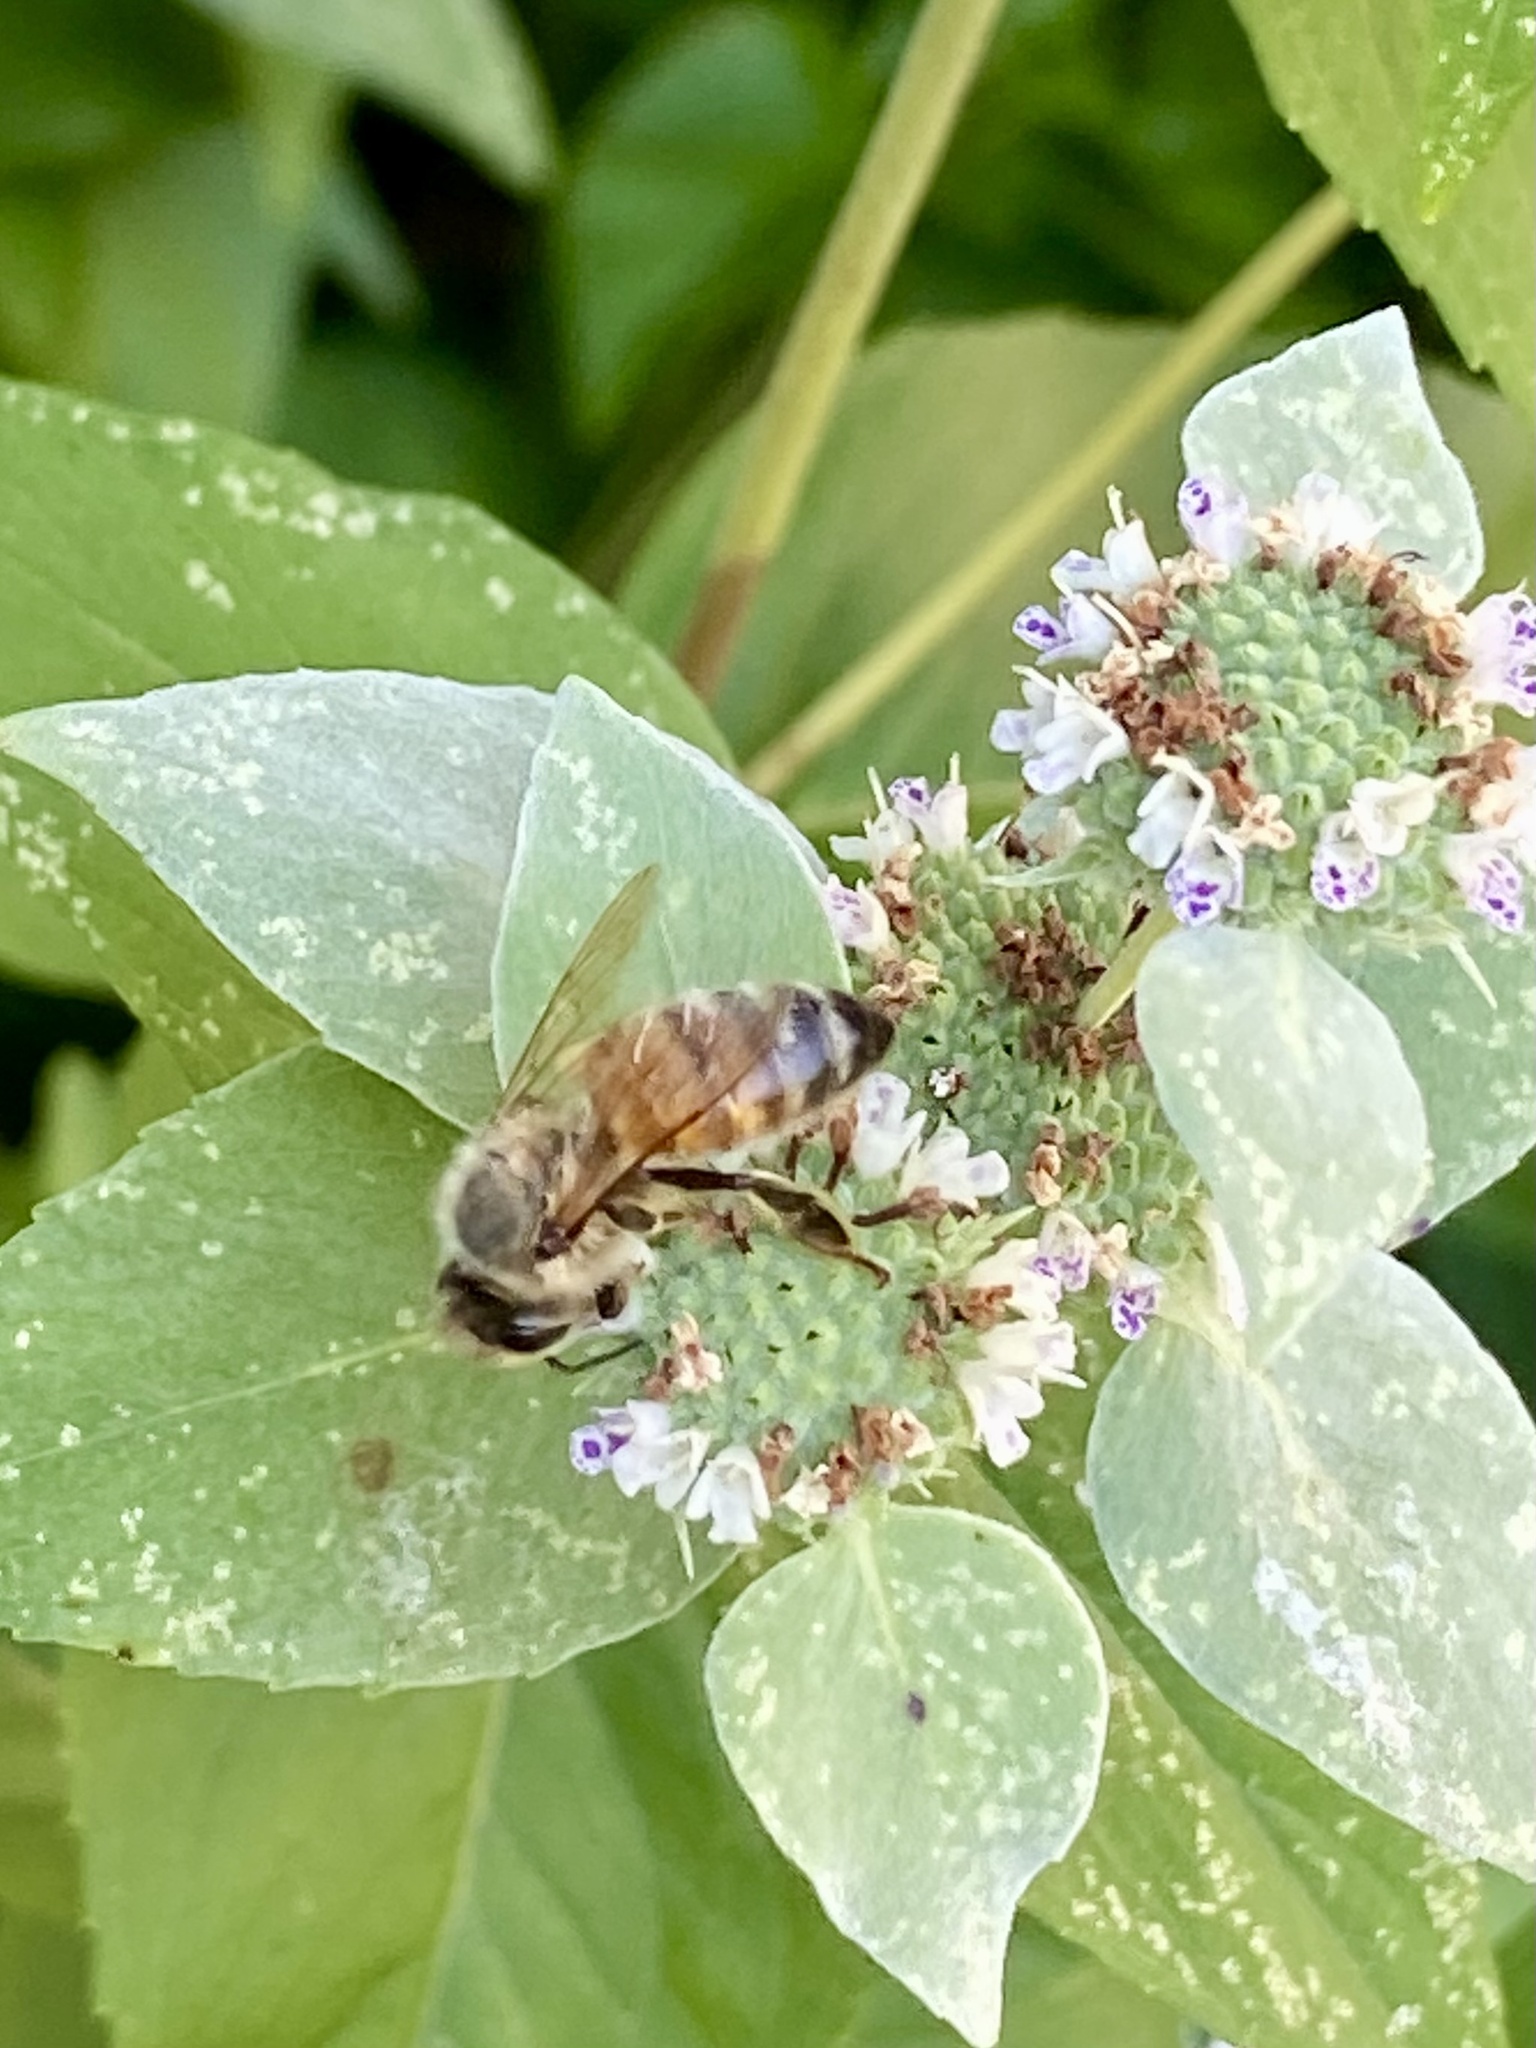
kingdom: Animalia
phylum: Arthropoda
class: Insecta
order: Hymenoptera
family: Apidae
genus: Apis
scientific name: Apis mellifera
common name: Honey bee
